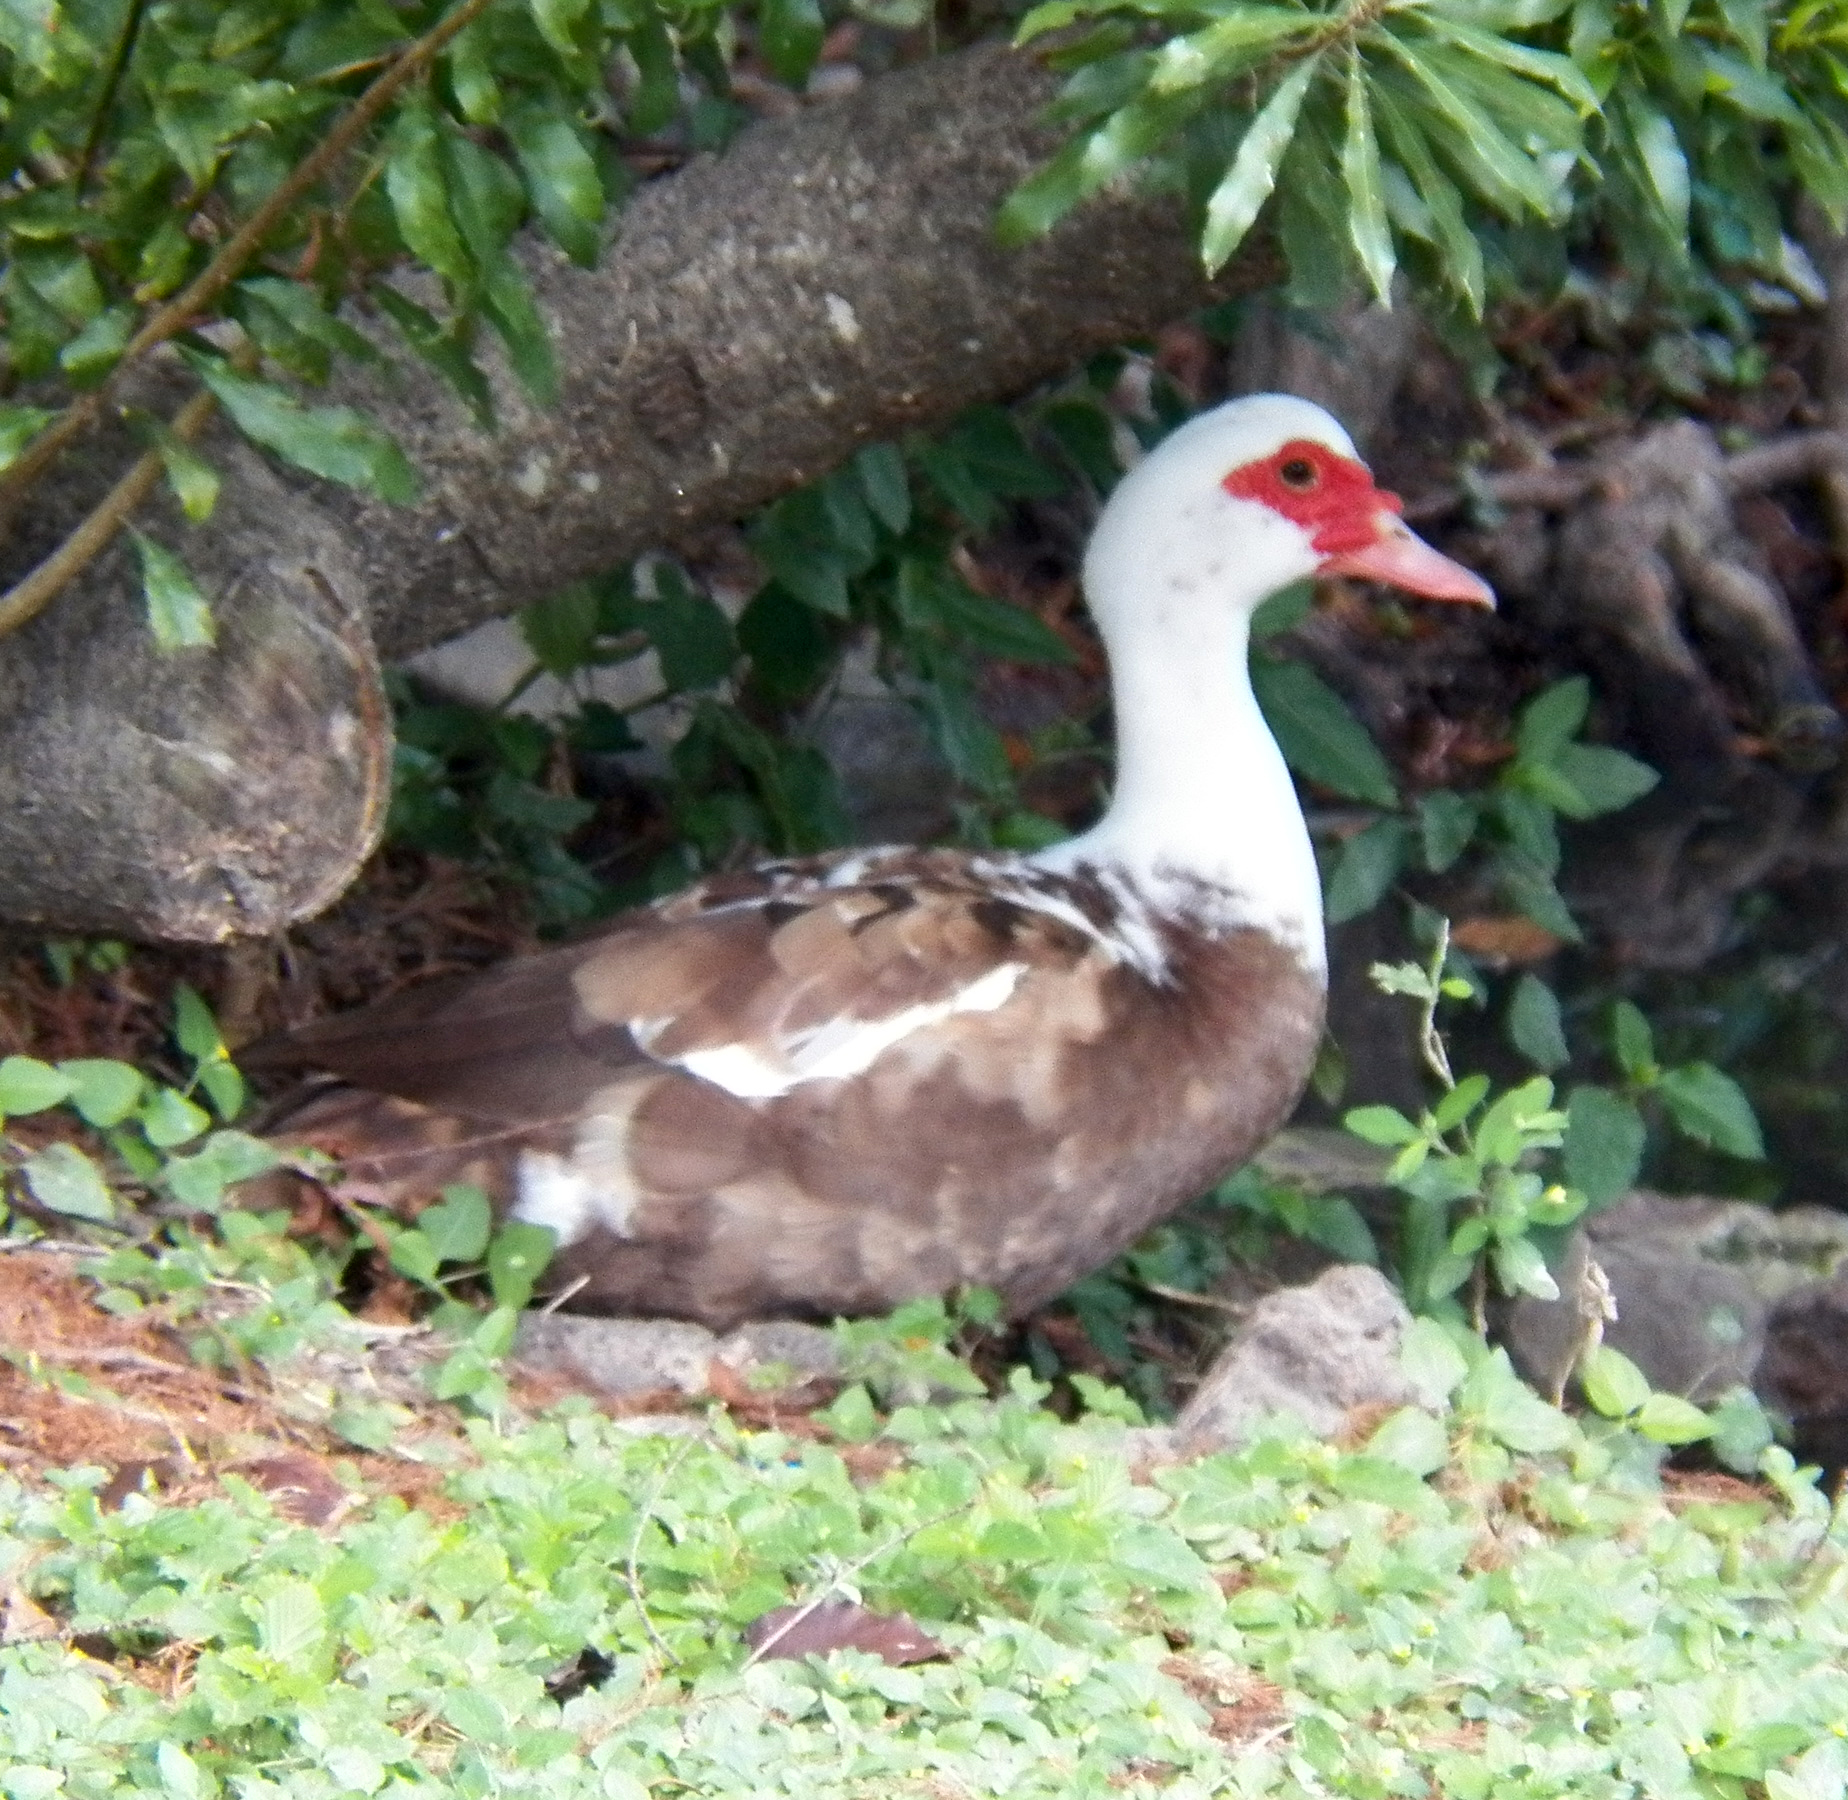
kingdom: Animalia
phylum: Chordata
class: Aves
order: Anseriformes
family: Anatidae
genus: Cairina
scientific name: Cairina moschata
